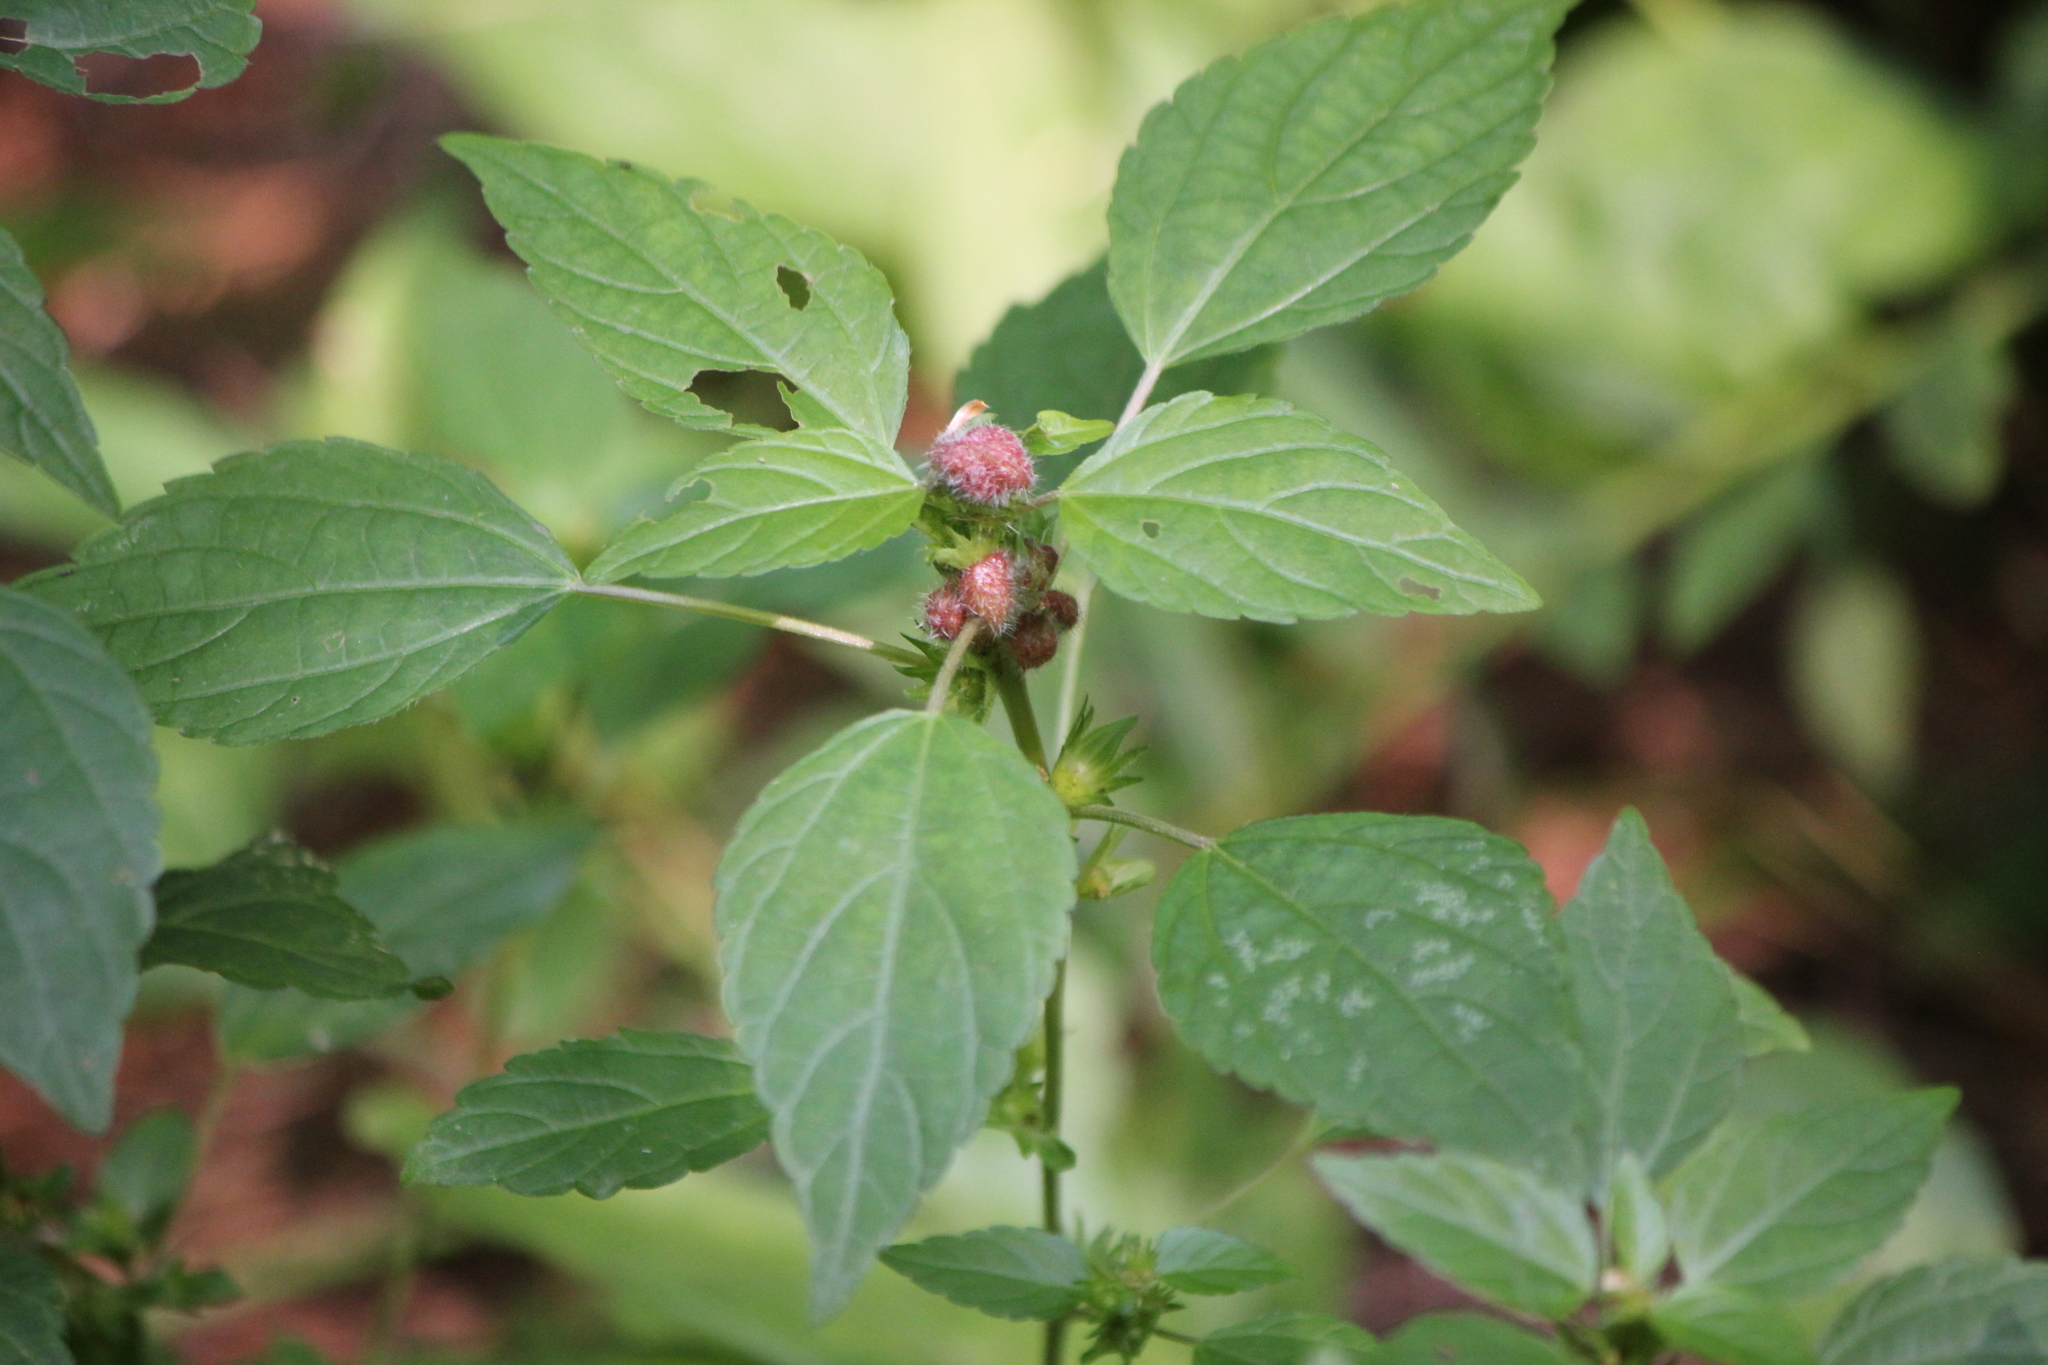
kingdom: Plantae
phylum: Tracheophyta
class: Magnoliopsida
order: Malpighiales
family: Euphorbiaceae
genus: Acalypha
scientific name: Acalypha rhomboidea
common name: Rhombic copperleaf
